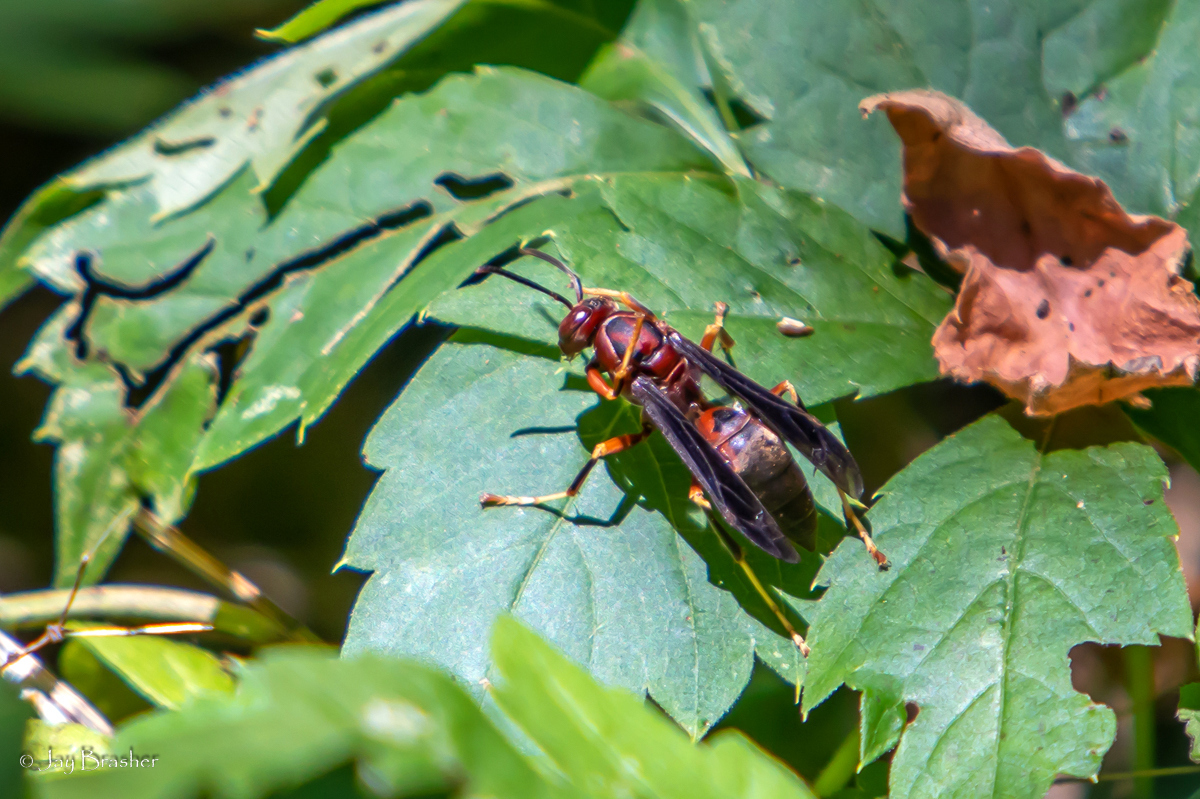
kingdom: Animalia
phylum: Arthropoda
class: Insecta
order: Hymenoptera
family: Eumenidae
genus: Polistes
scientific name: Polistes metricus
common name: Metric paper wasp
